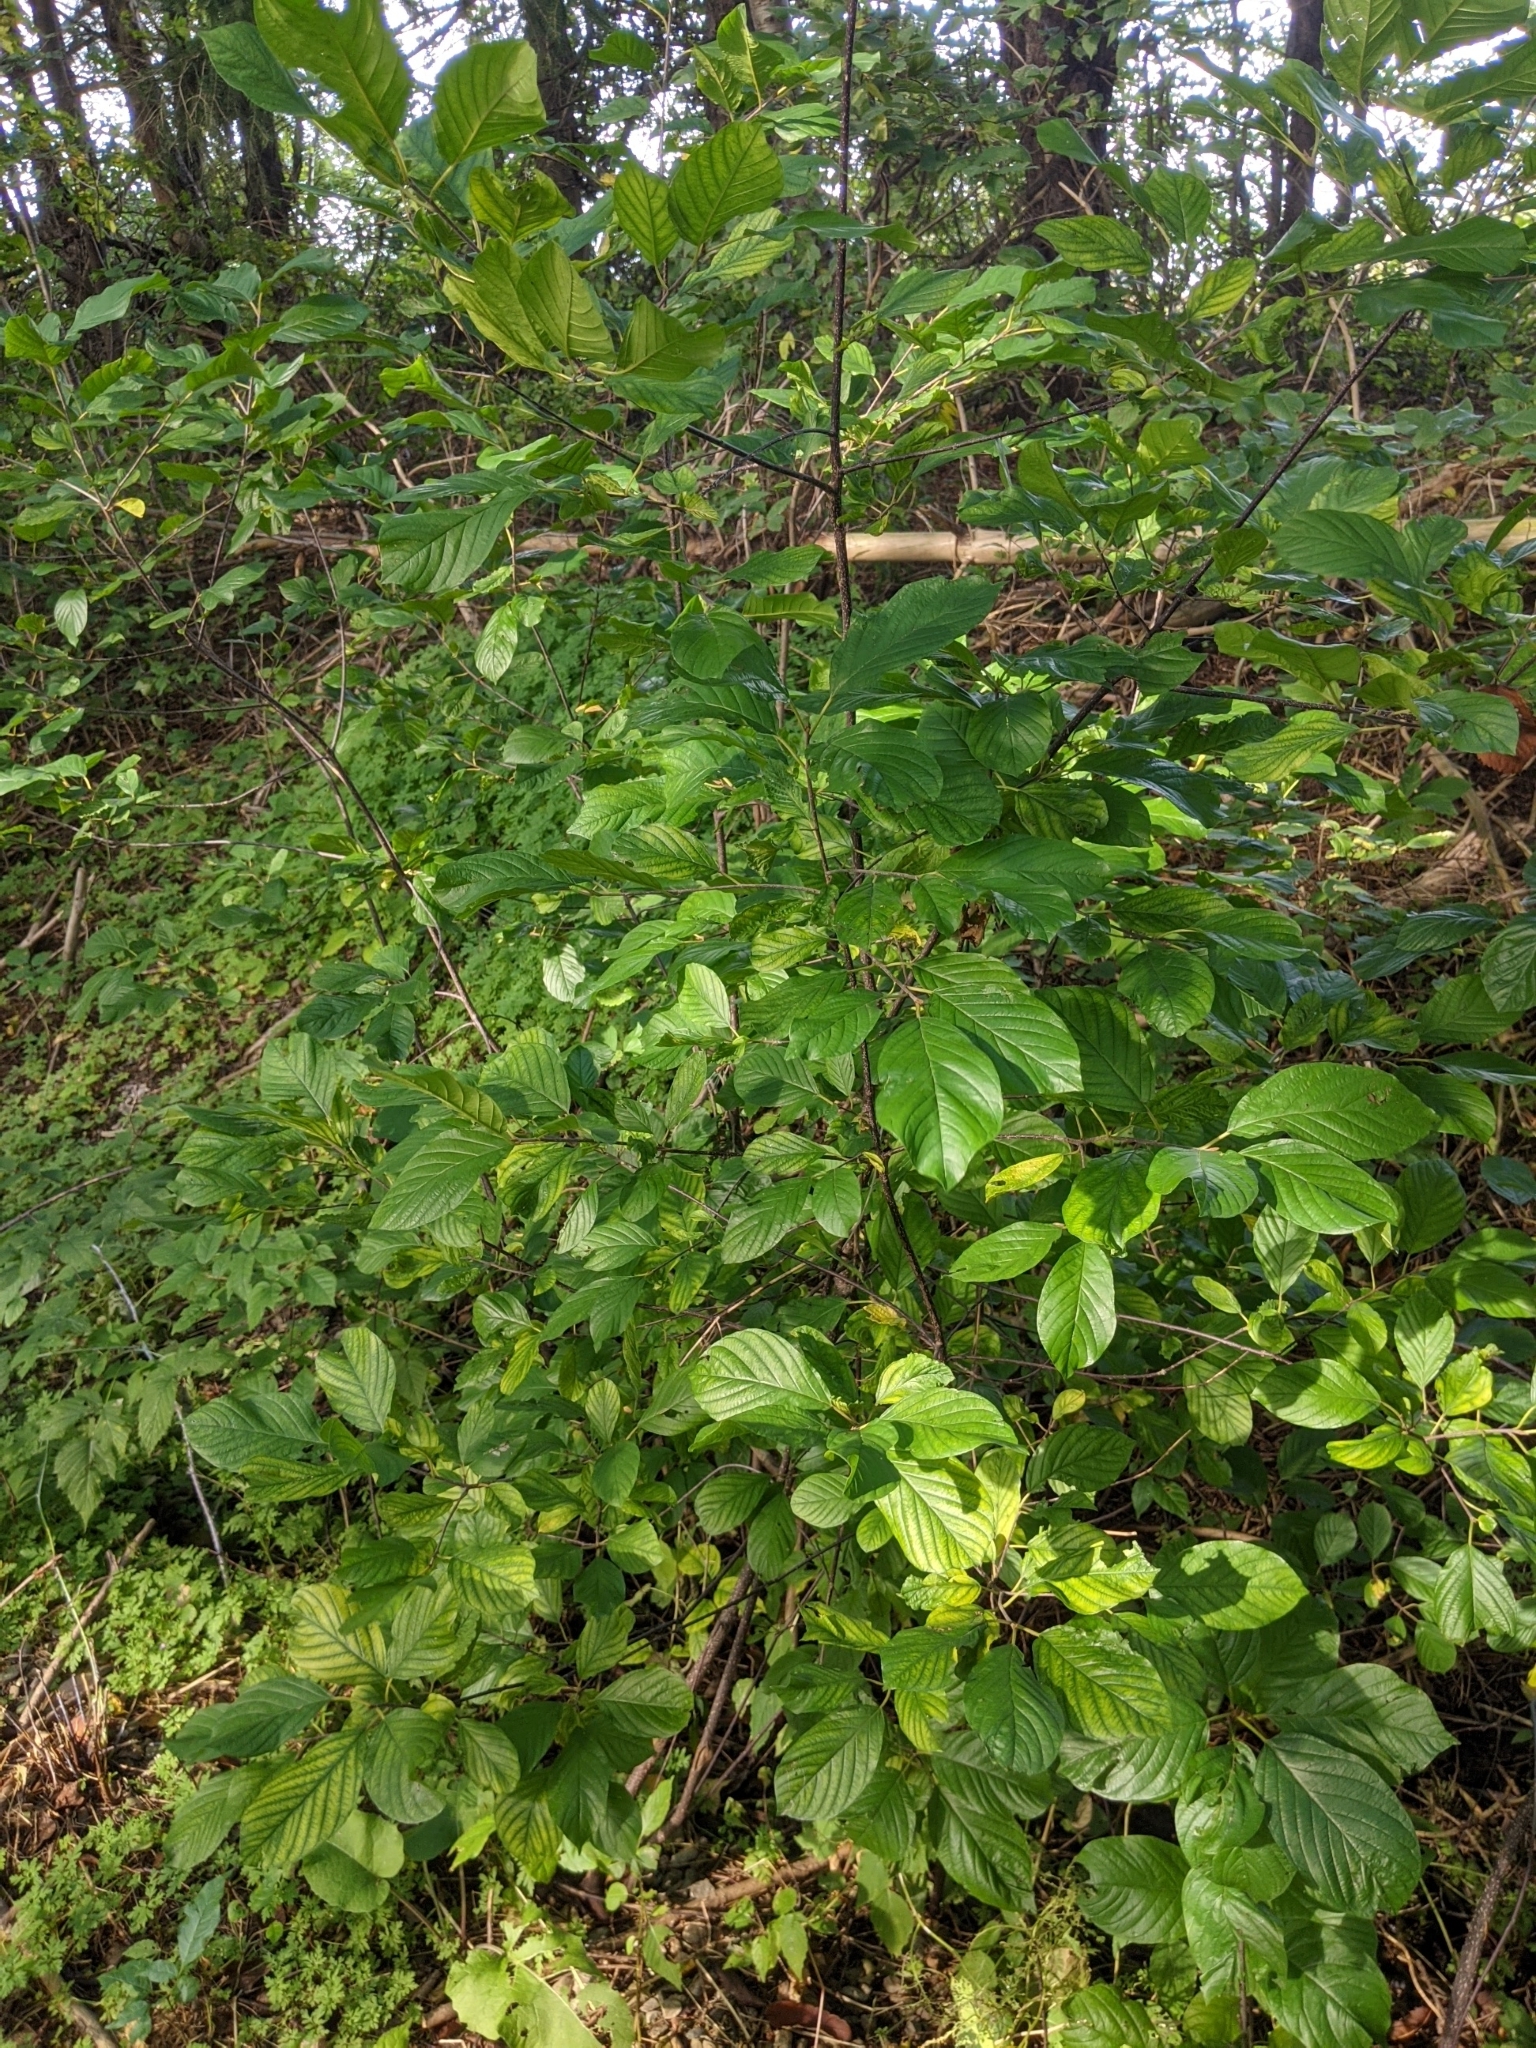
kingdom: Plantae
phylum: Tracheophyta
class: Magnoliopsida
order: Rosales
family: Rhamnaceae
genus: Frangula
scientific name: Frangula alnus
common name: Alder buckthorn
